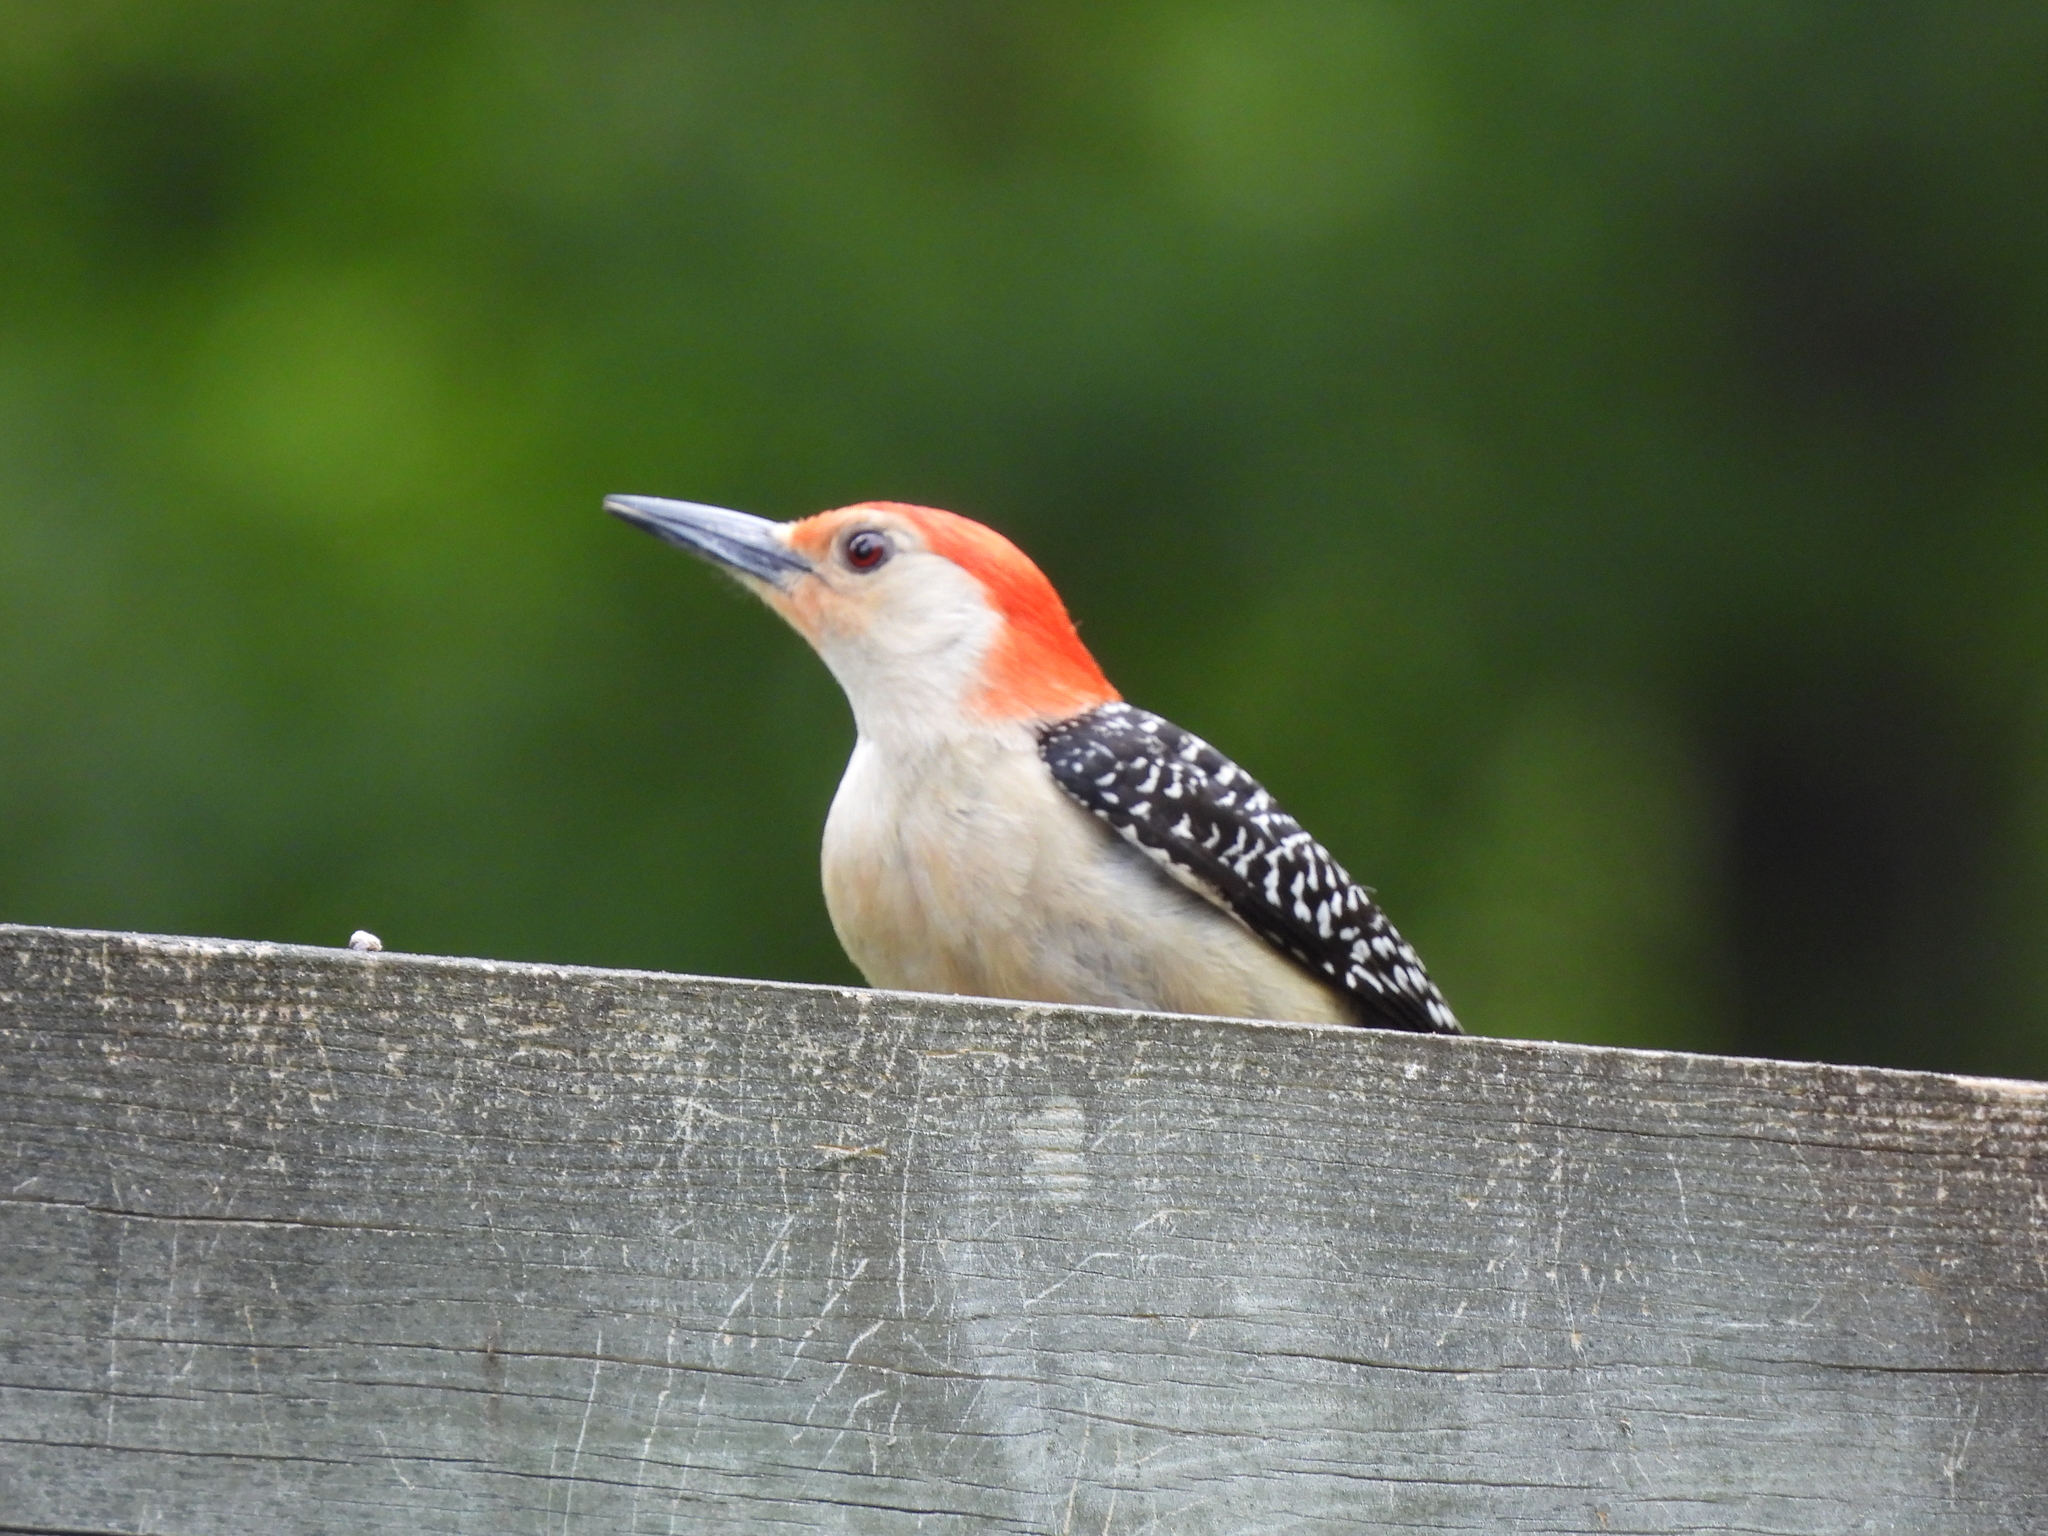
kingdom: Animalia
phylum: Chordata
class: Aves
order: Piciformes
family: Picidae
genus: Melanerpes
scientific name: Melanerpes carolinus
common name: Red-bellied woodpecker
